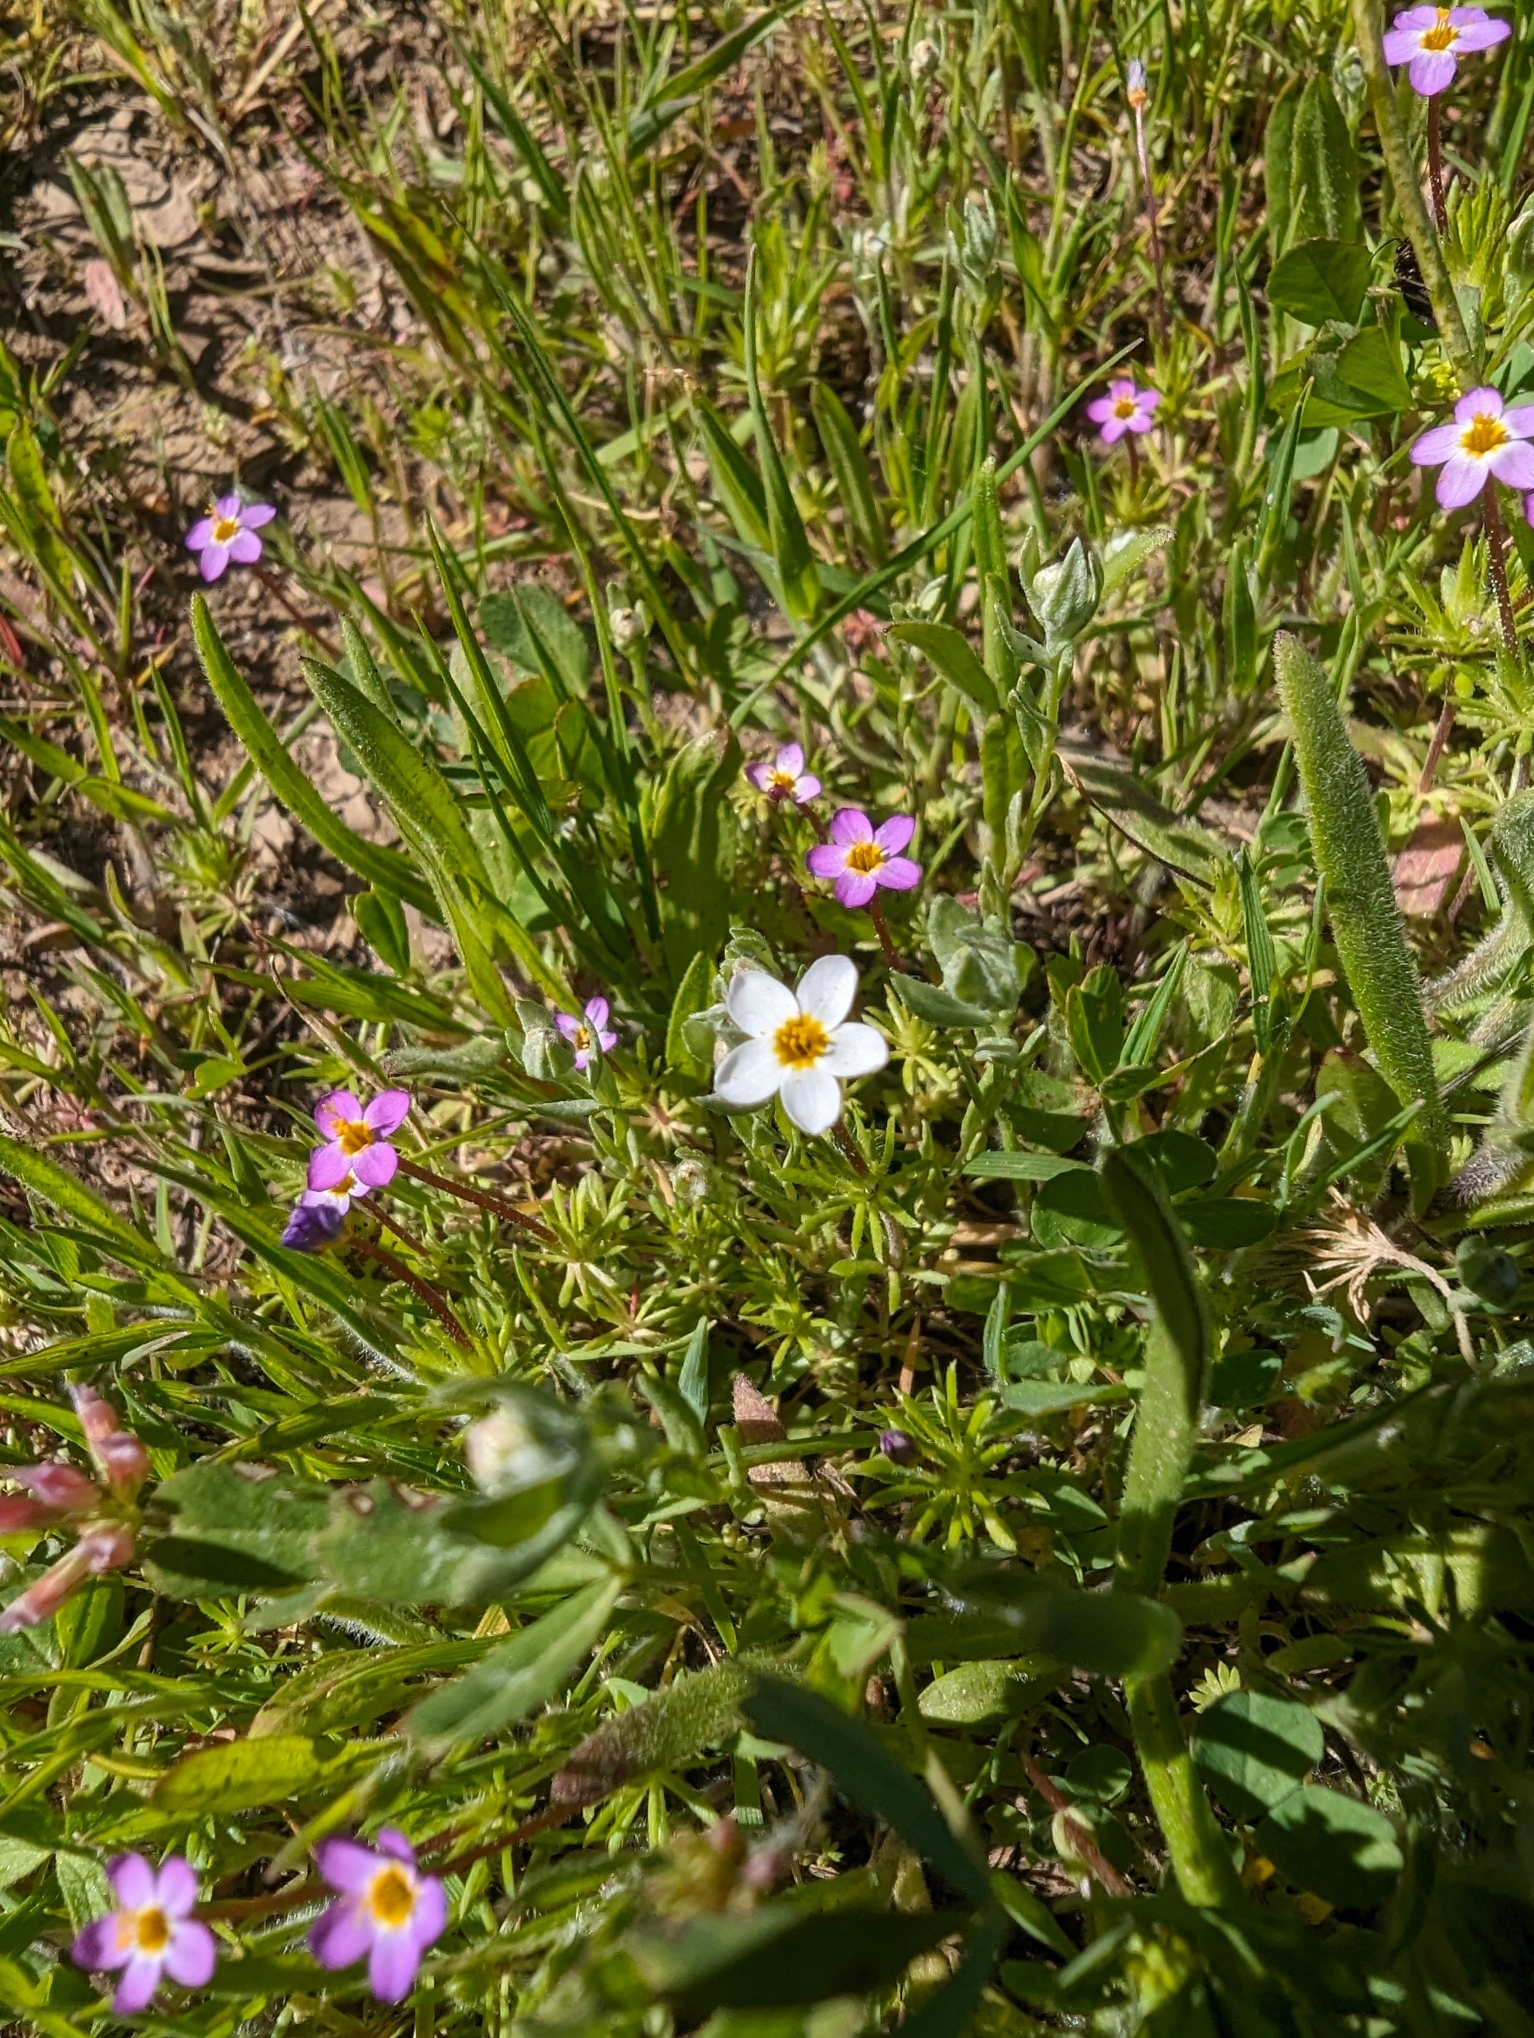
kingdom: Plantae
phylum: Tracheophyta
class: Magnoliopsida
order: Ericales
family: Polemoniaceae
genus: Leptosiphon
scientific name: Leptosiphon bicolor
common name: True babystars
